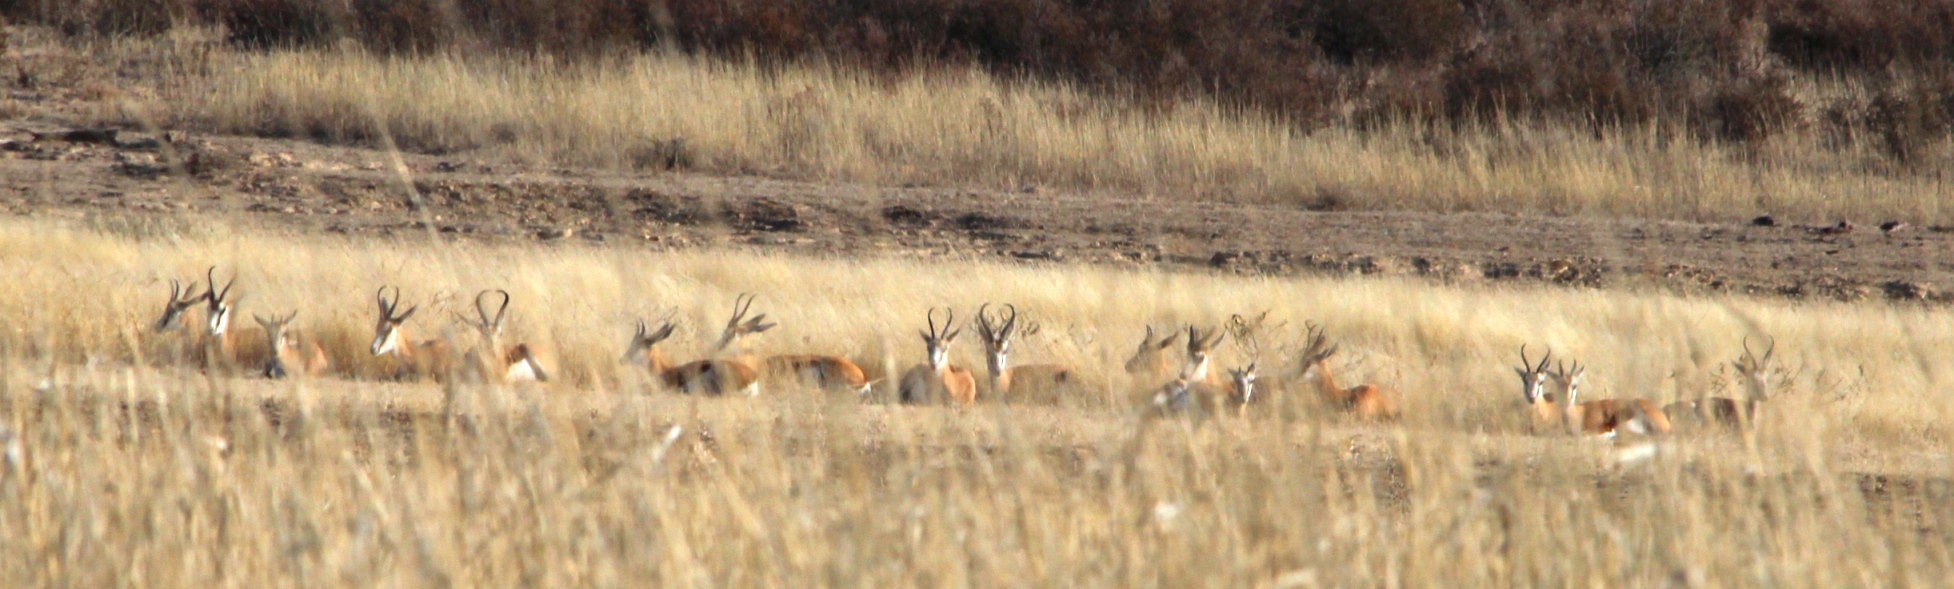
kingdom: Animalia
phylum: Chordata
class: Mammalia
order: Artiodactyla
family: Bovidae
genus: Antidorcas
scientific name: Antidorcas marsupialis
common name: Springbok
